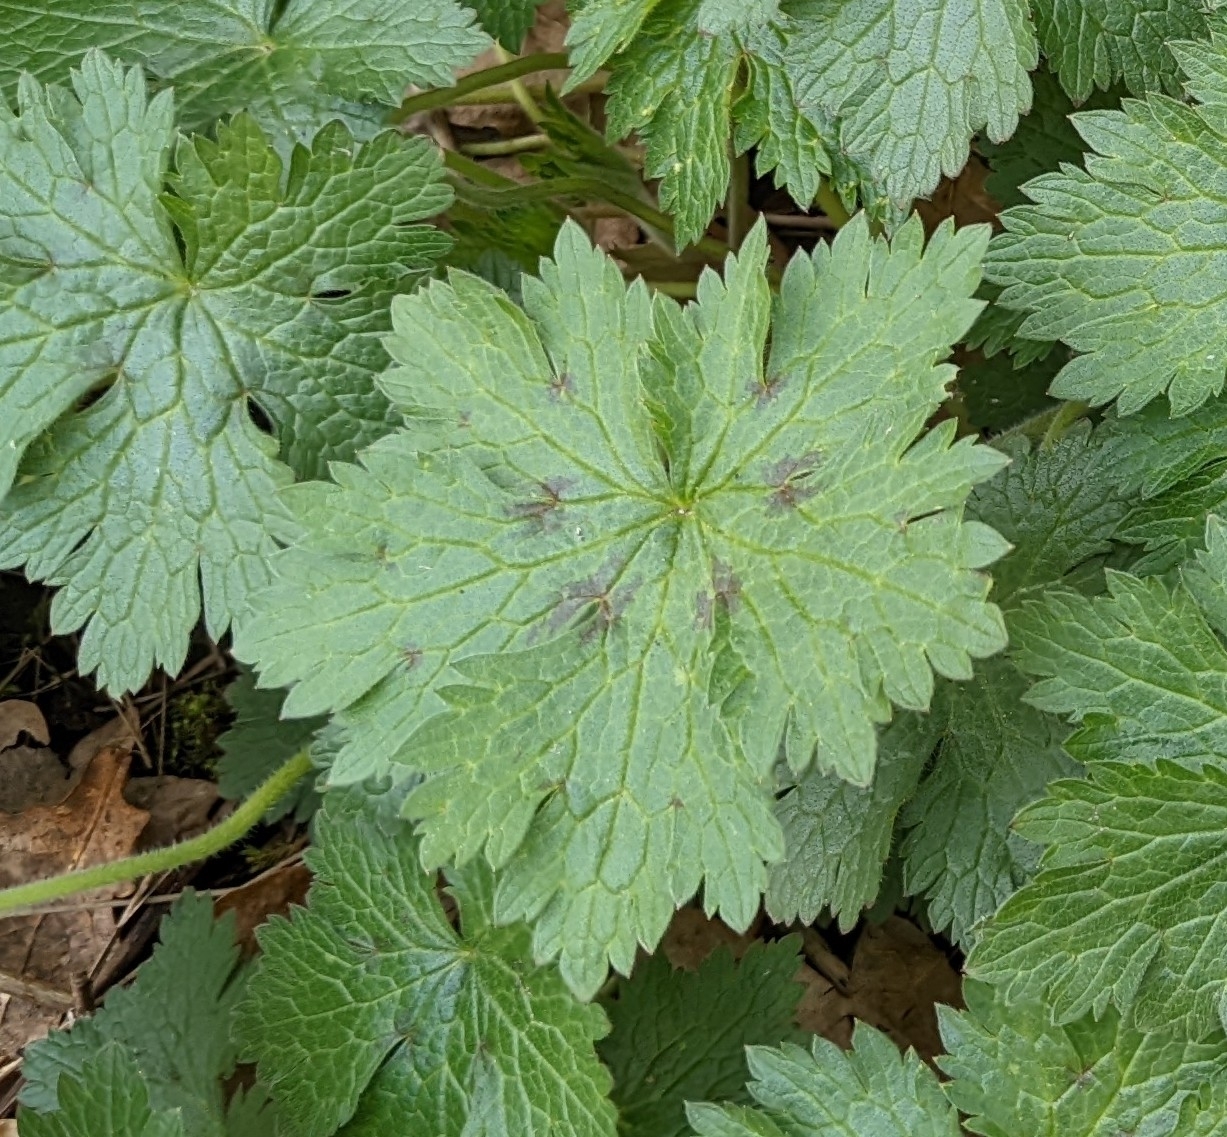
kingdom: Plantae
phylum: Tracheophyta
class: Magnoliopsida
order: Geraniales
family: Geraniaceae
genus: Geranium
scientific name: Geranium oxonianum
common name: Druce's crane's-bill
